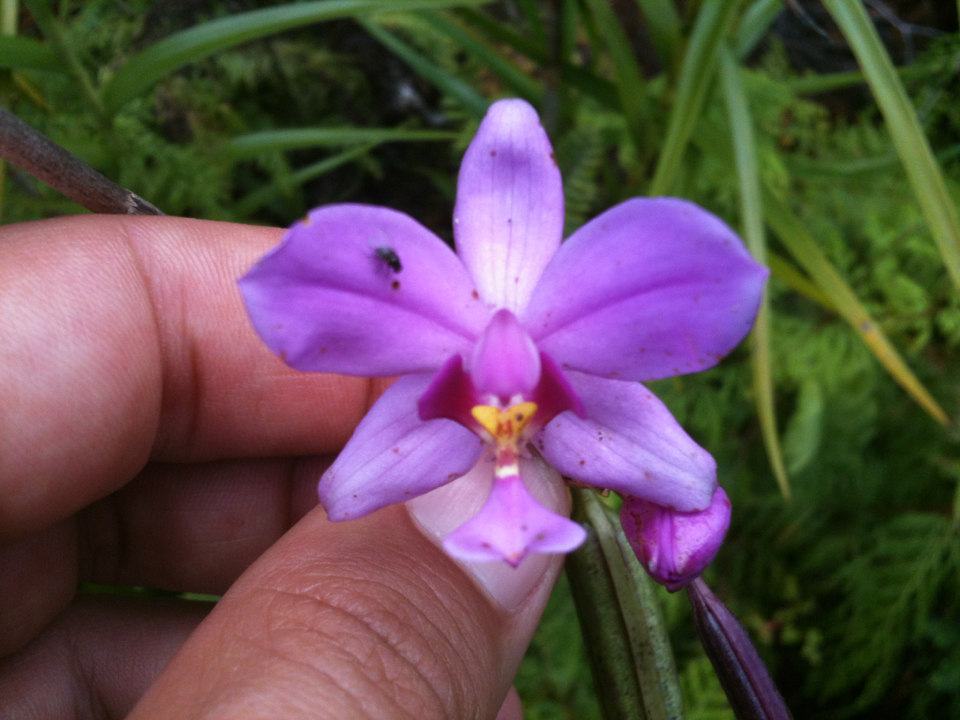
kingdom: Plantae
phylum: Tracheophyta
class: Liliopsida
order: Asparagales
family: Orchidaceae
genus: Spathoglottis
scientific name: Spathoglottis plicata
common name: Philippine ground orchid
